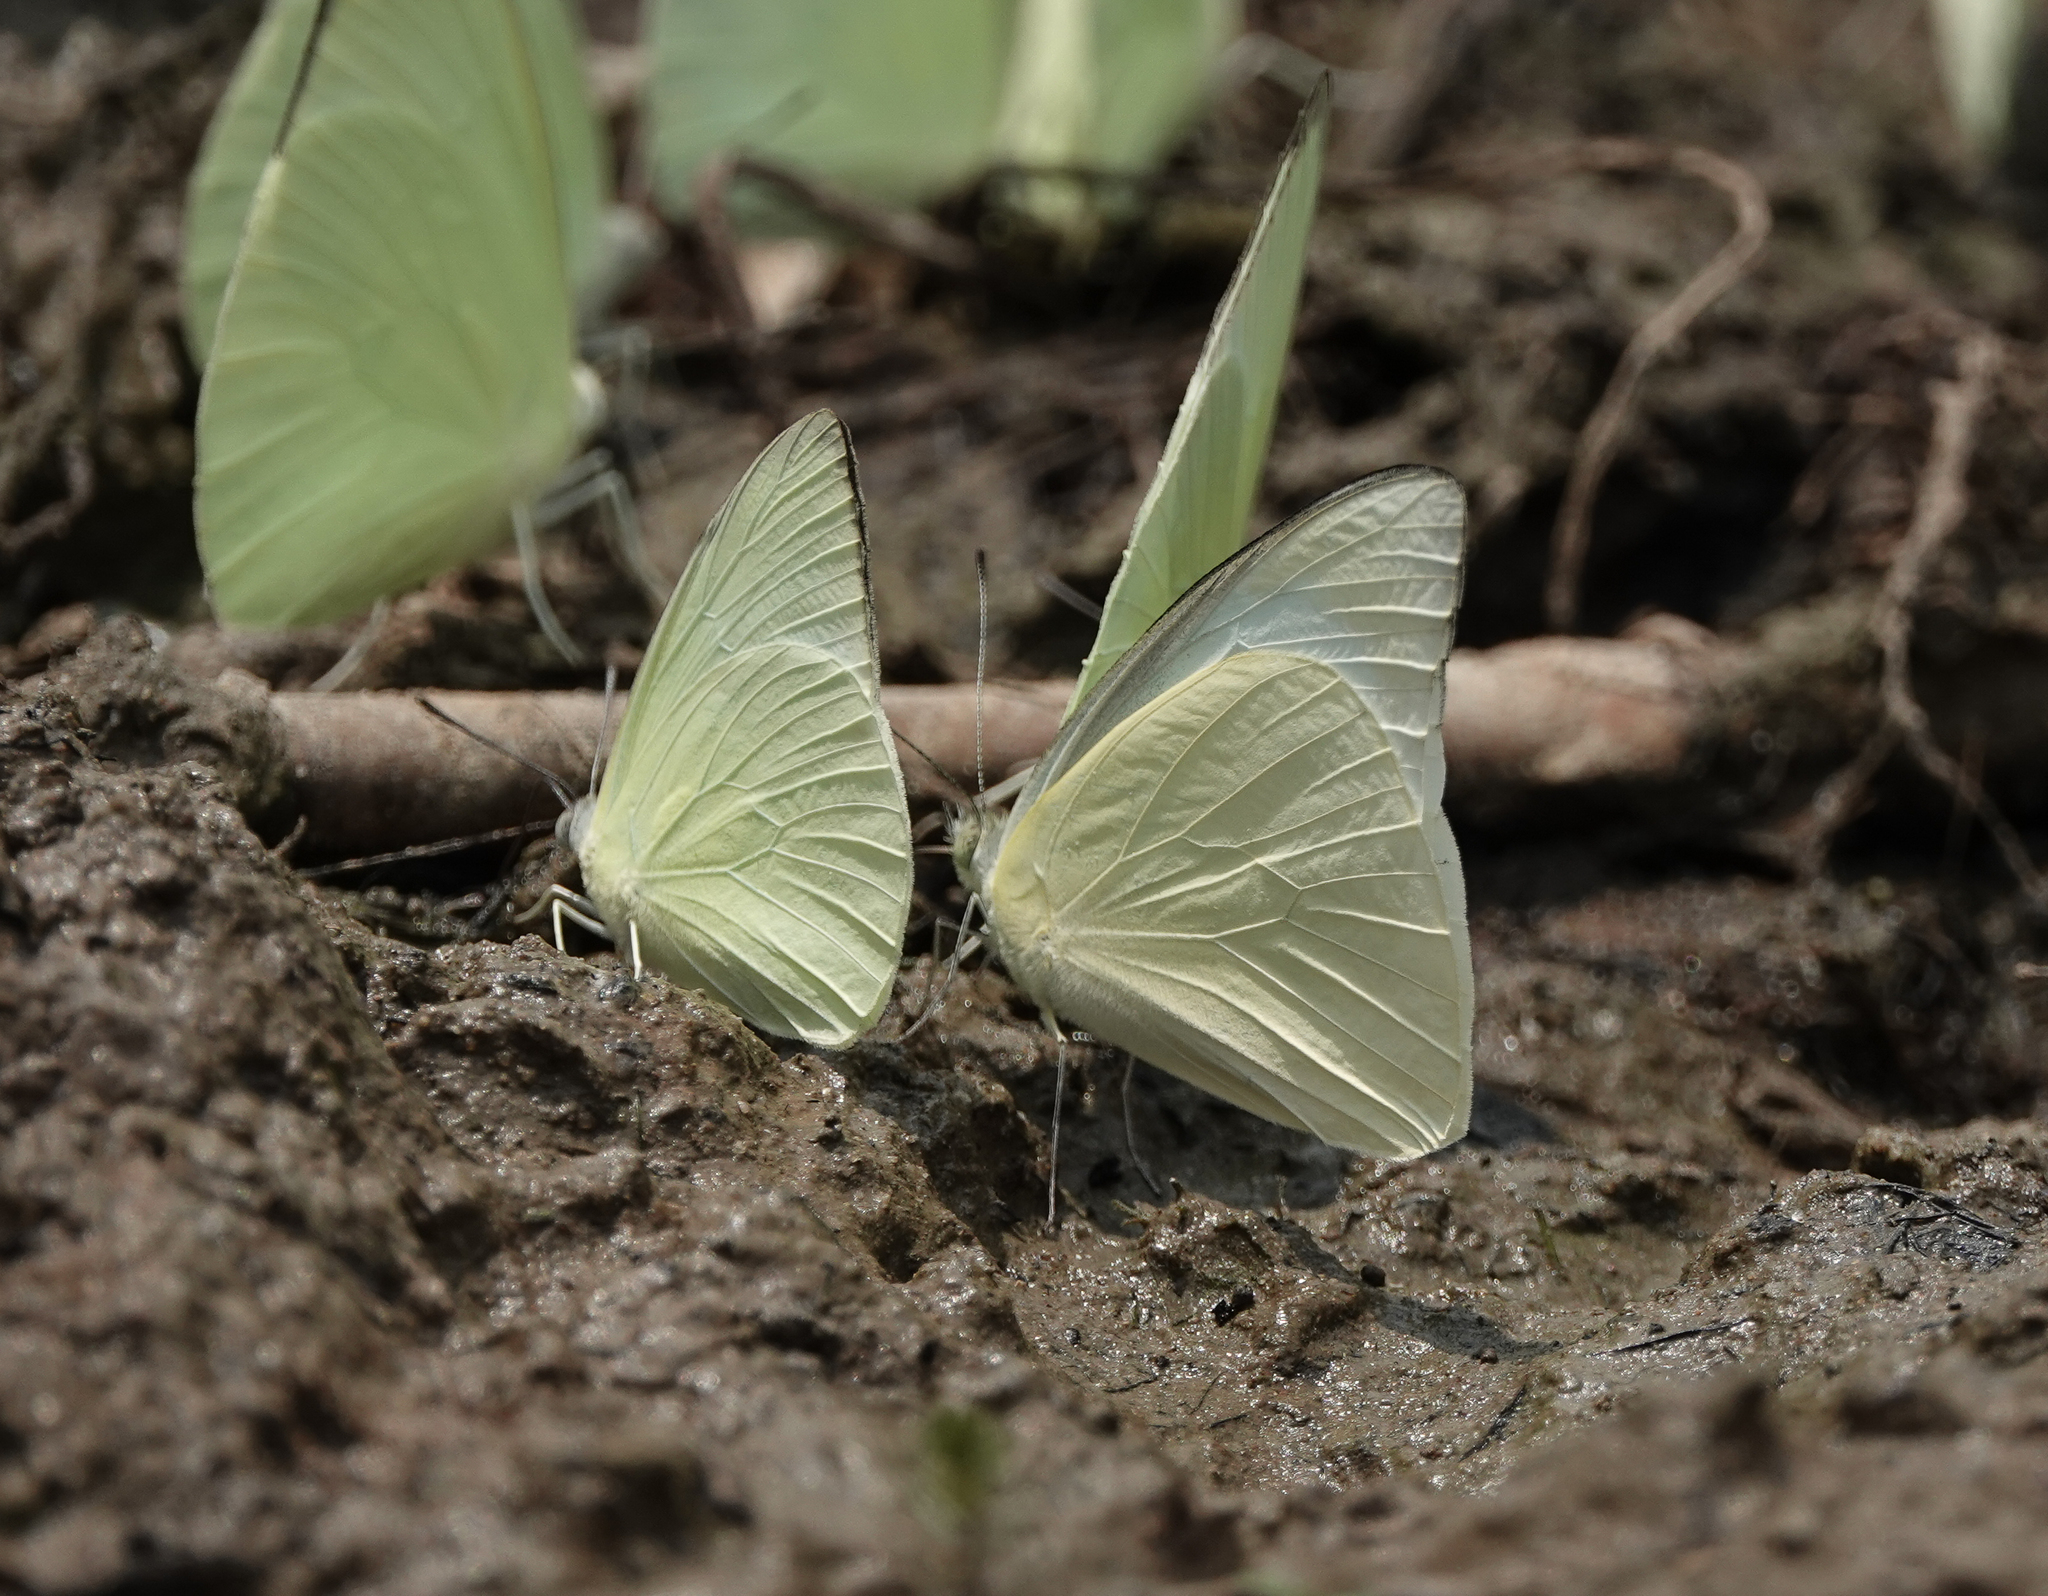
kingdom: Animalia
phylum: Arthropoda
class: Insecta
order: Lepidoptera
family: Pieridae
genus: Appias
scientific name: Appias albina
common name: Common albatross
